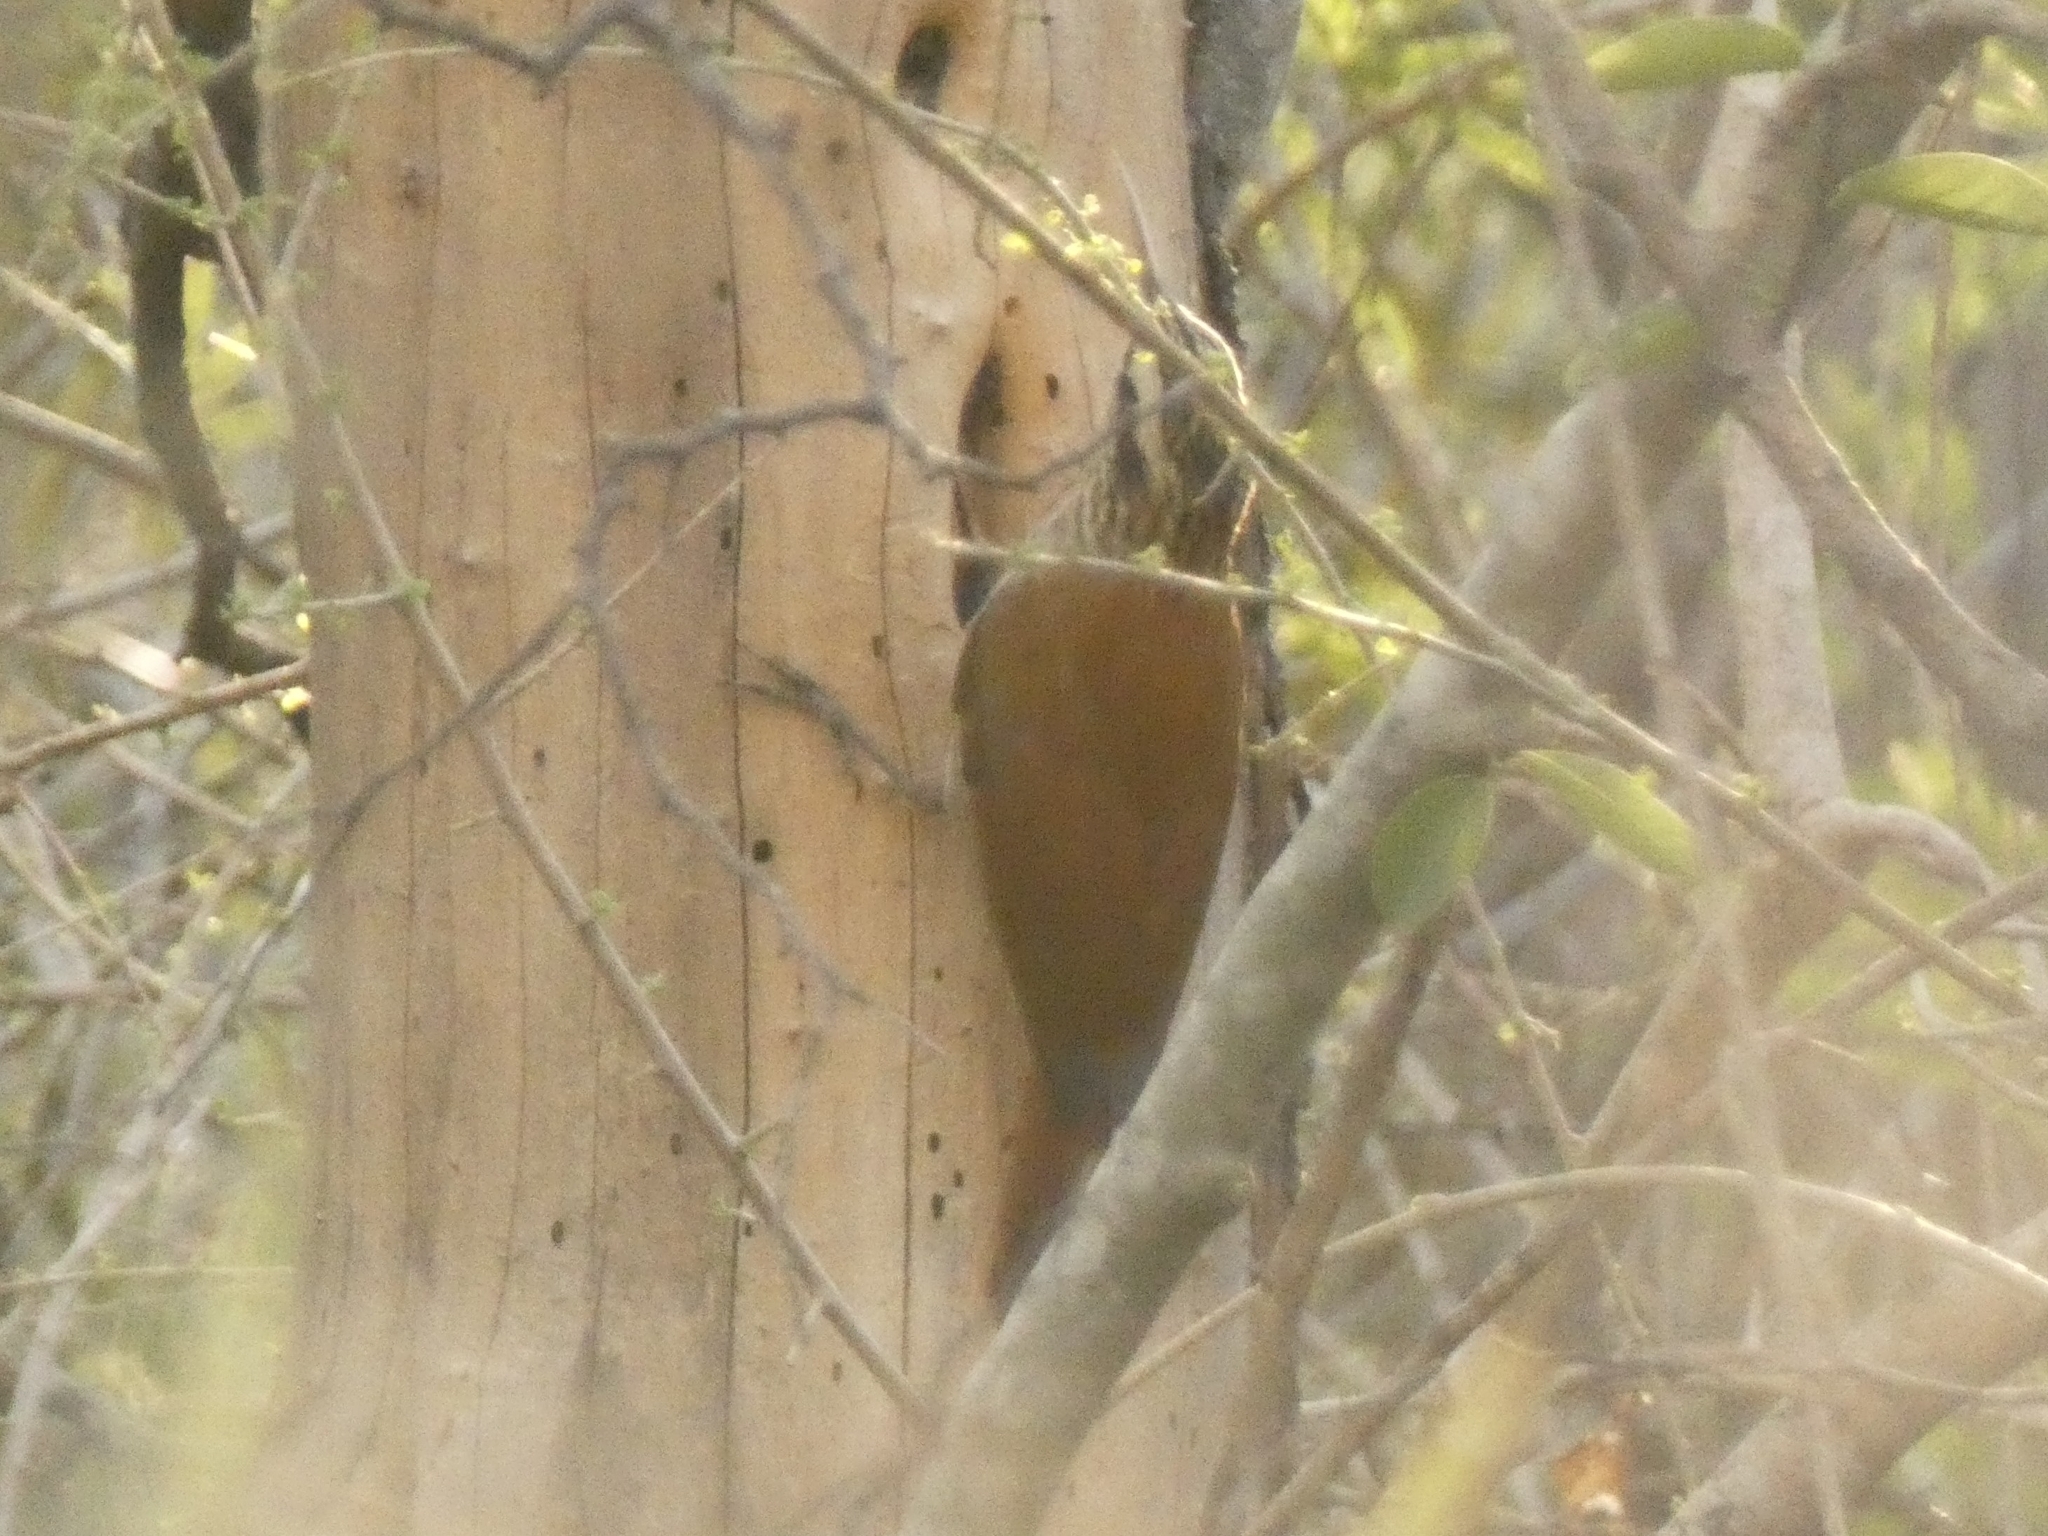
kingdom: Animalia
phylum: Chordata
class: Aves
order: Passeriformes
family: Furnariidae
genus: Lepidocolaptes
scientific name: Lepidocolaptes angustirostris
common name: Narrow-billed woodcreeper
